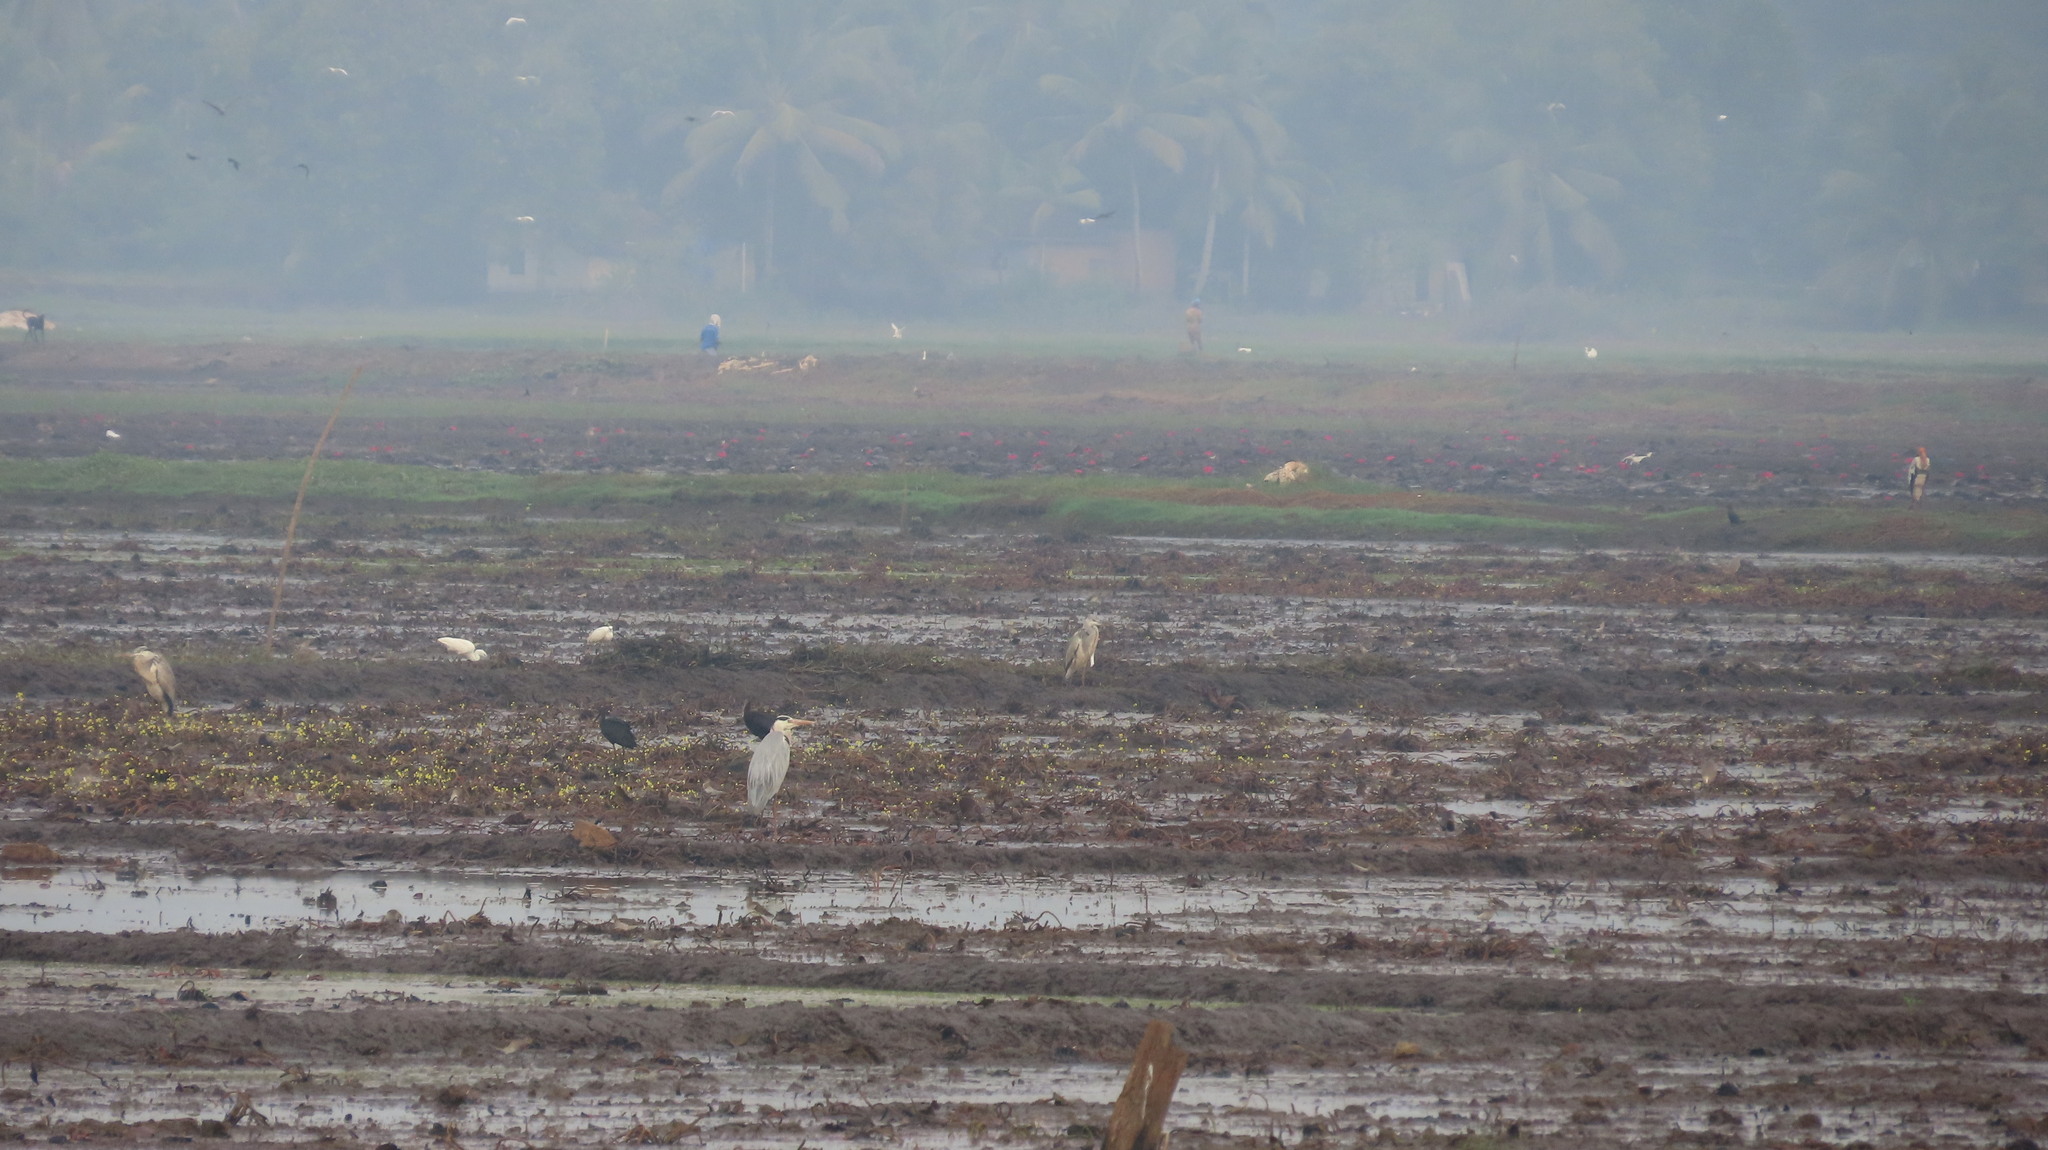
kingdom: Animalia
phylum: Chordata
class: Aves
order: Ciconiiformes
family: Ciconiidae
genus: Mycteria
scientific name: Mycteria leucocephala
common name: Painted stork
